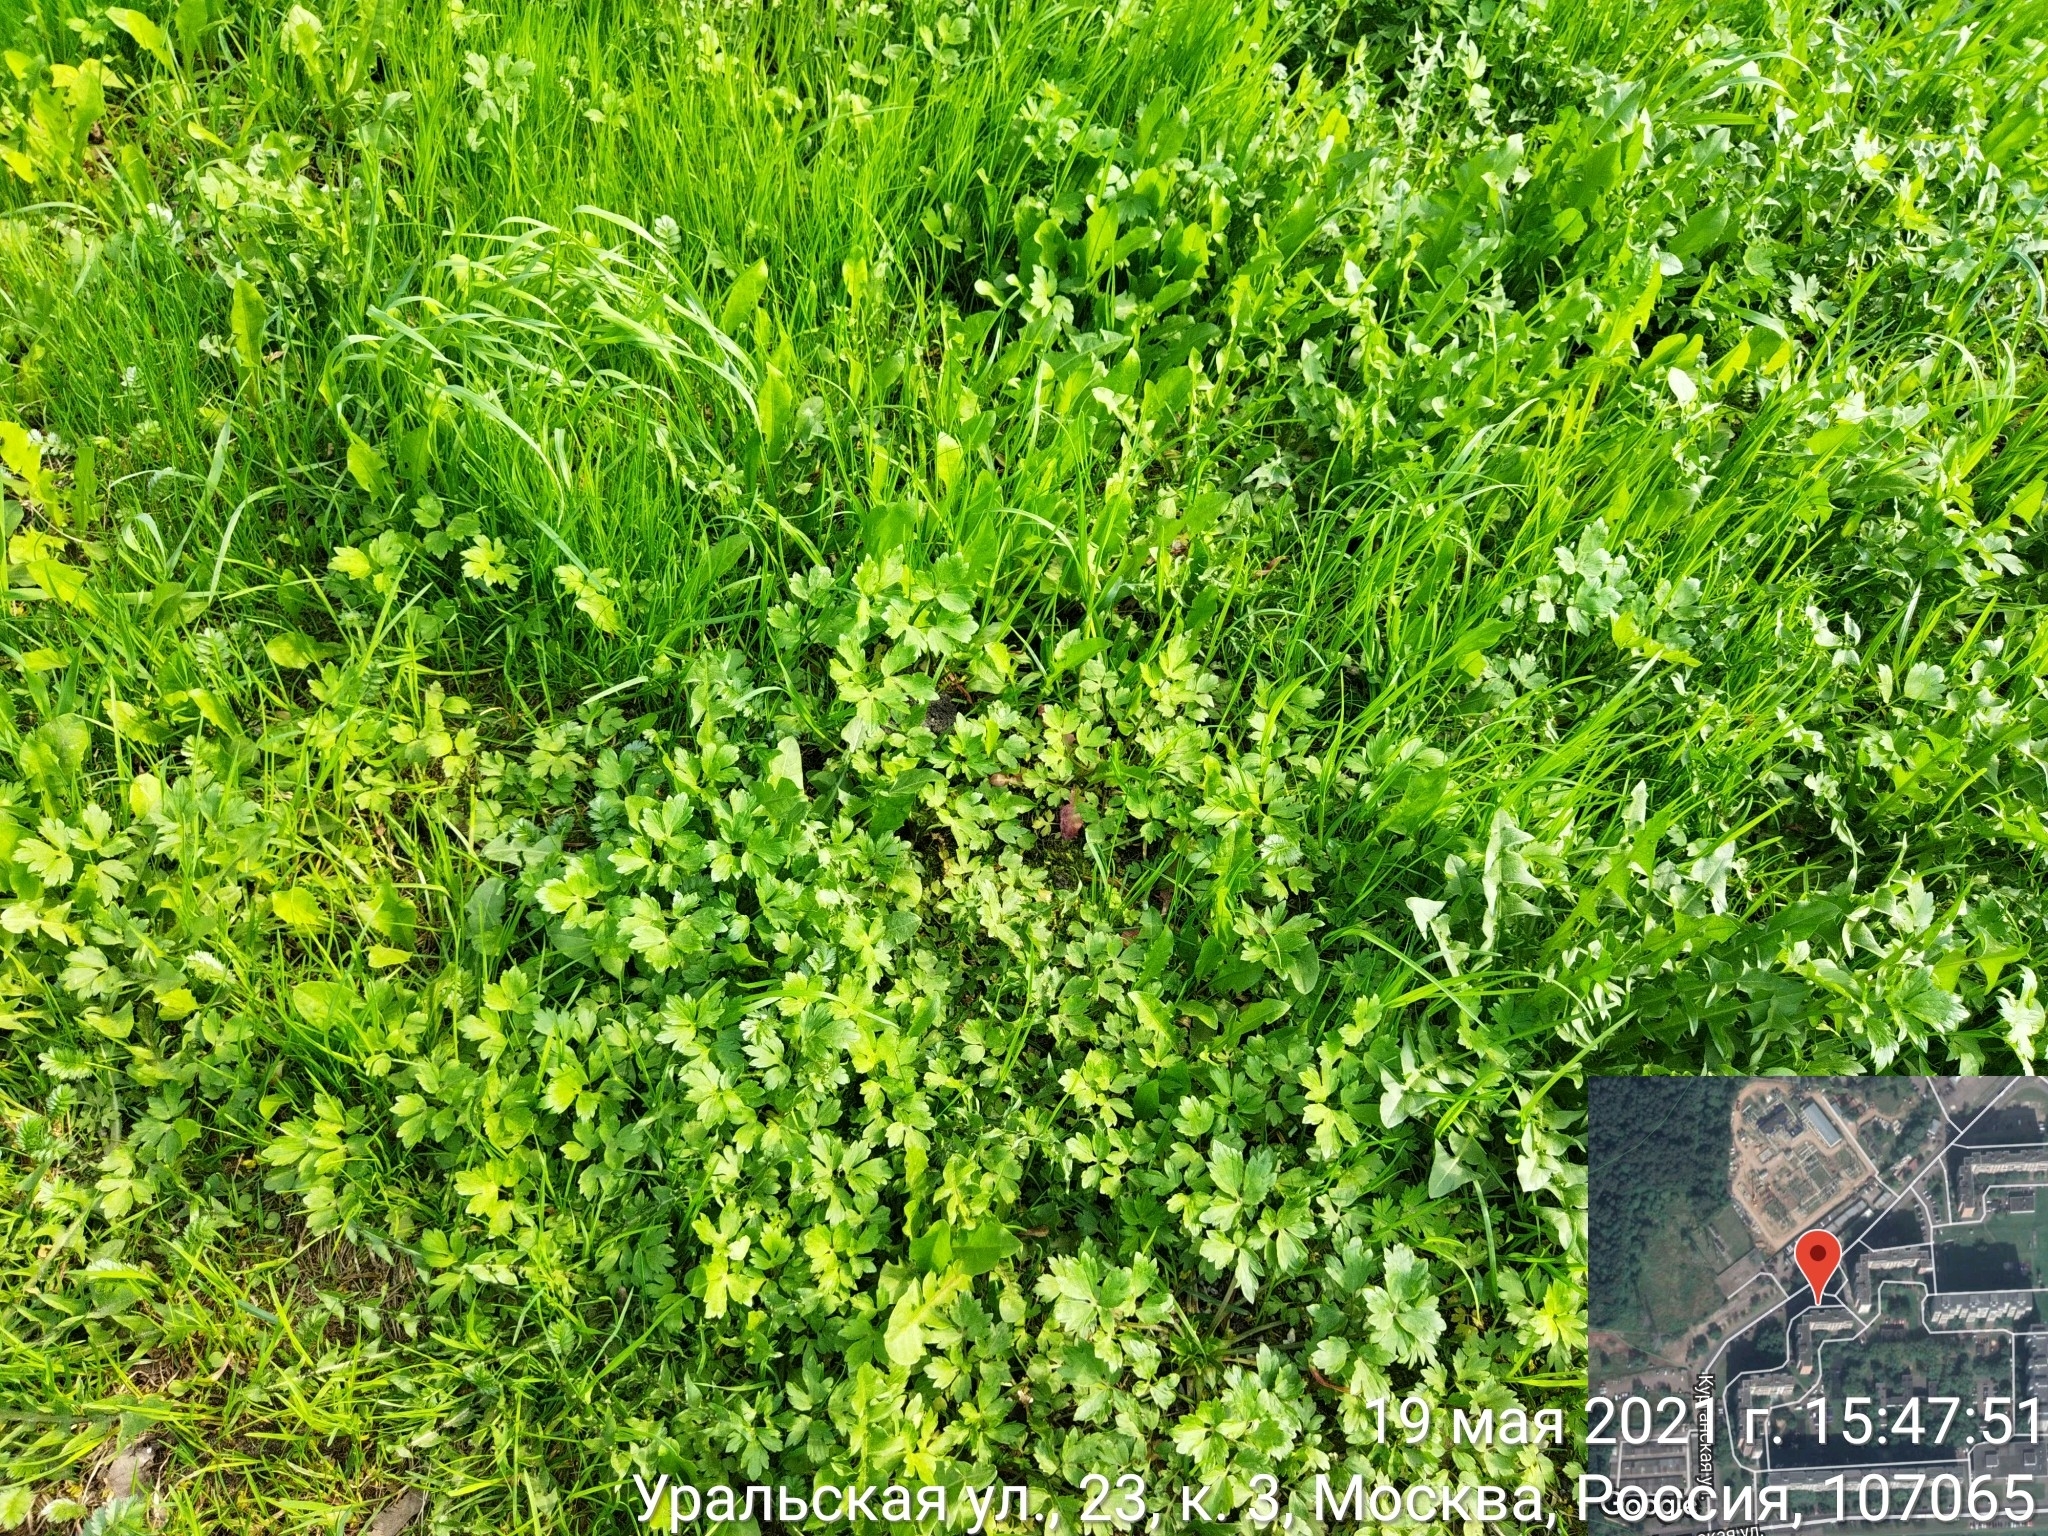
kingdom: Plantae
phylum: Tracheophyta
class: Magnoliopsida
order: Ranunculales
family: Ranunculaceae
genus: Ranunculus
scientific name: Ranunculus repens
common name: Creeping buttercup
